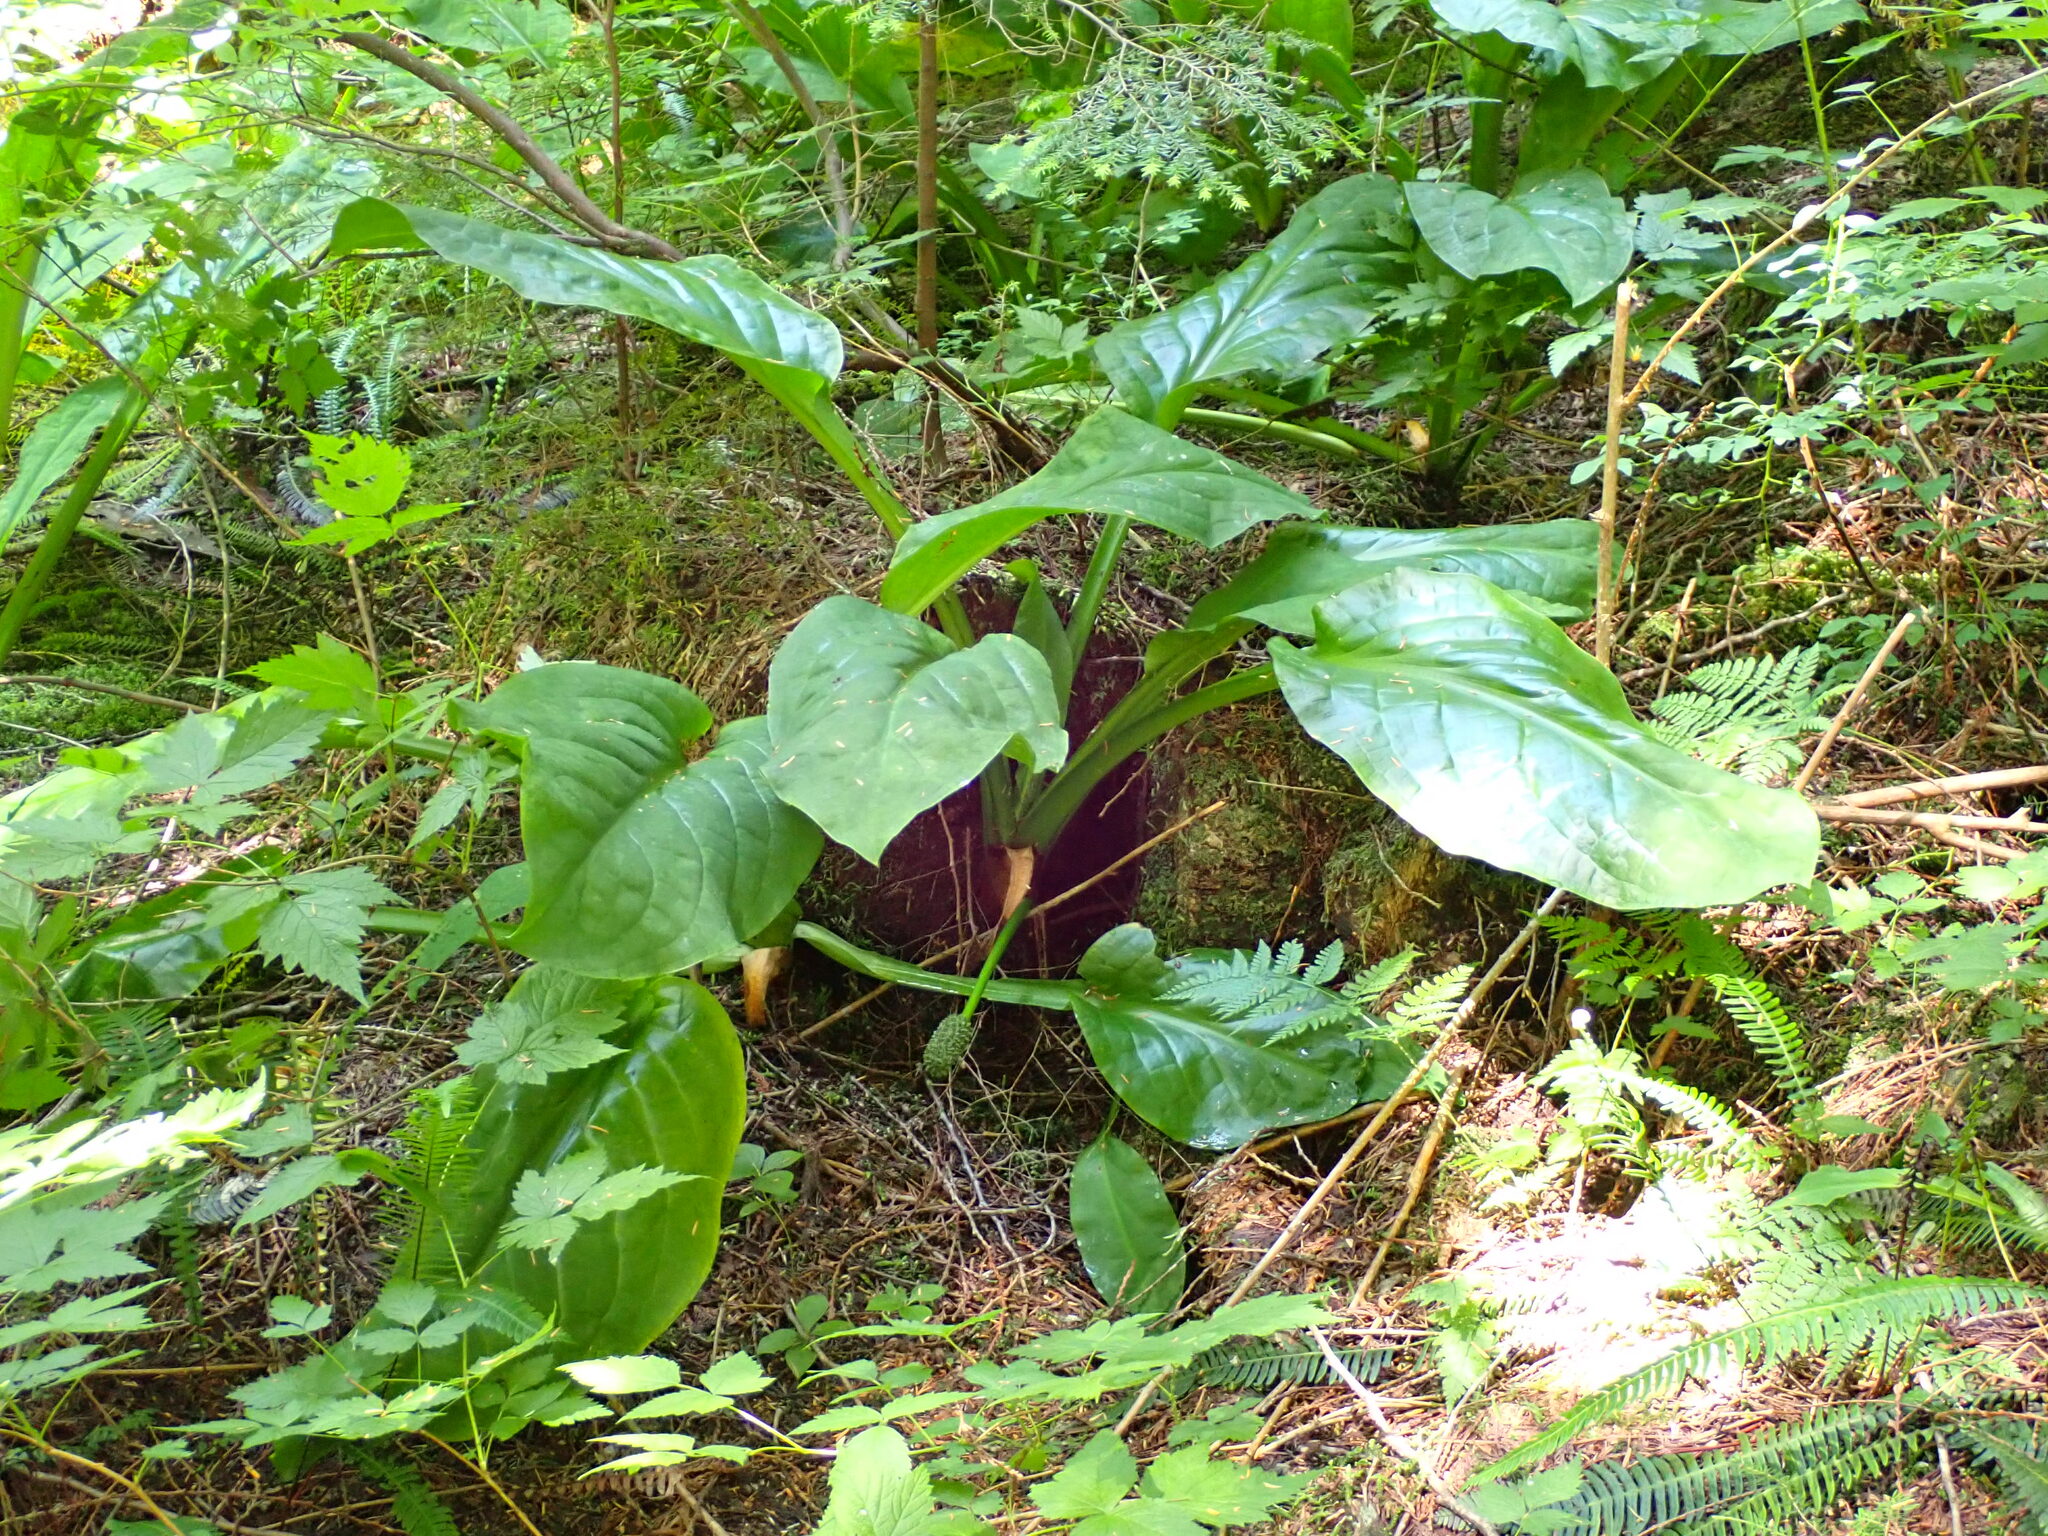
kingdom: Plantae
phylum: Tracheophyta
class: Liliopsida
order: Alismatales
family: Araceae
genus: Lysichiton
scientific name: Lysichiton americanus
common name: American skunk cabbage
